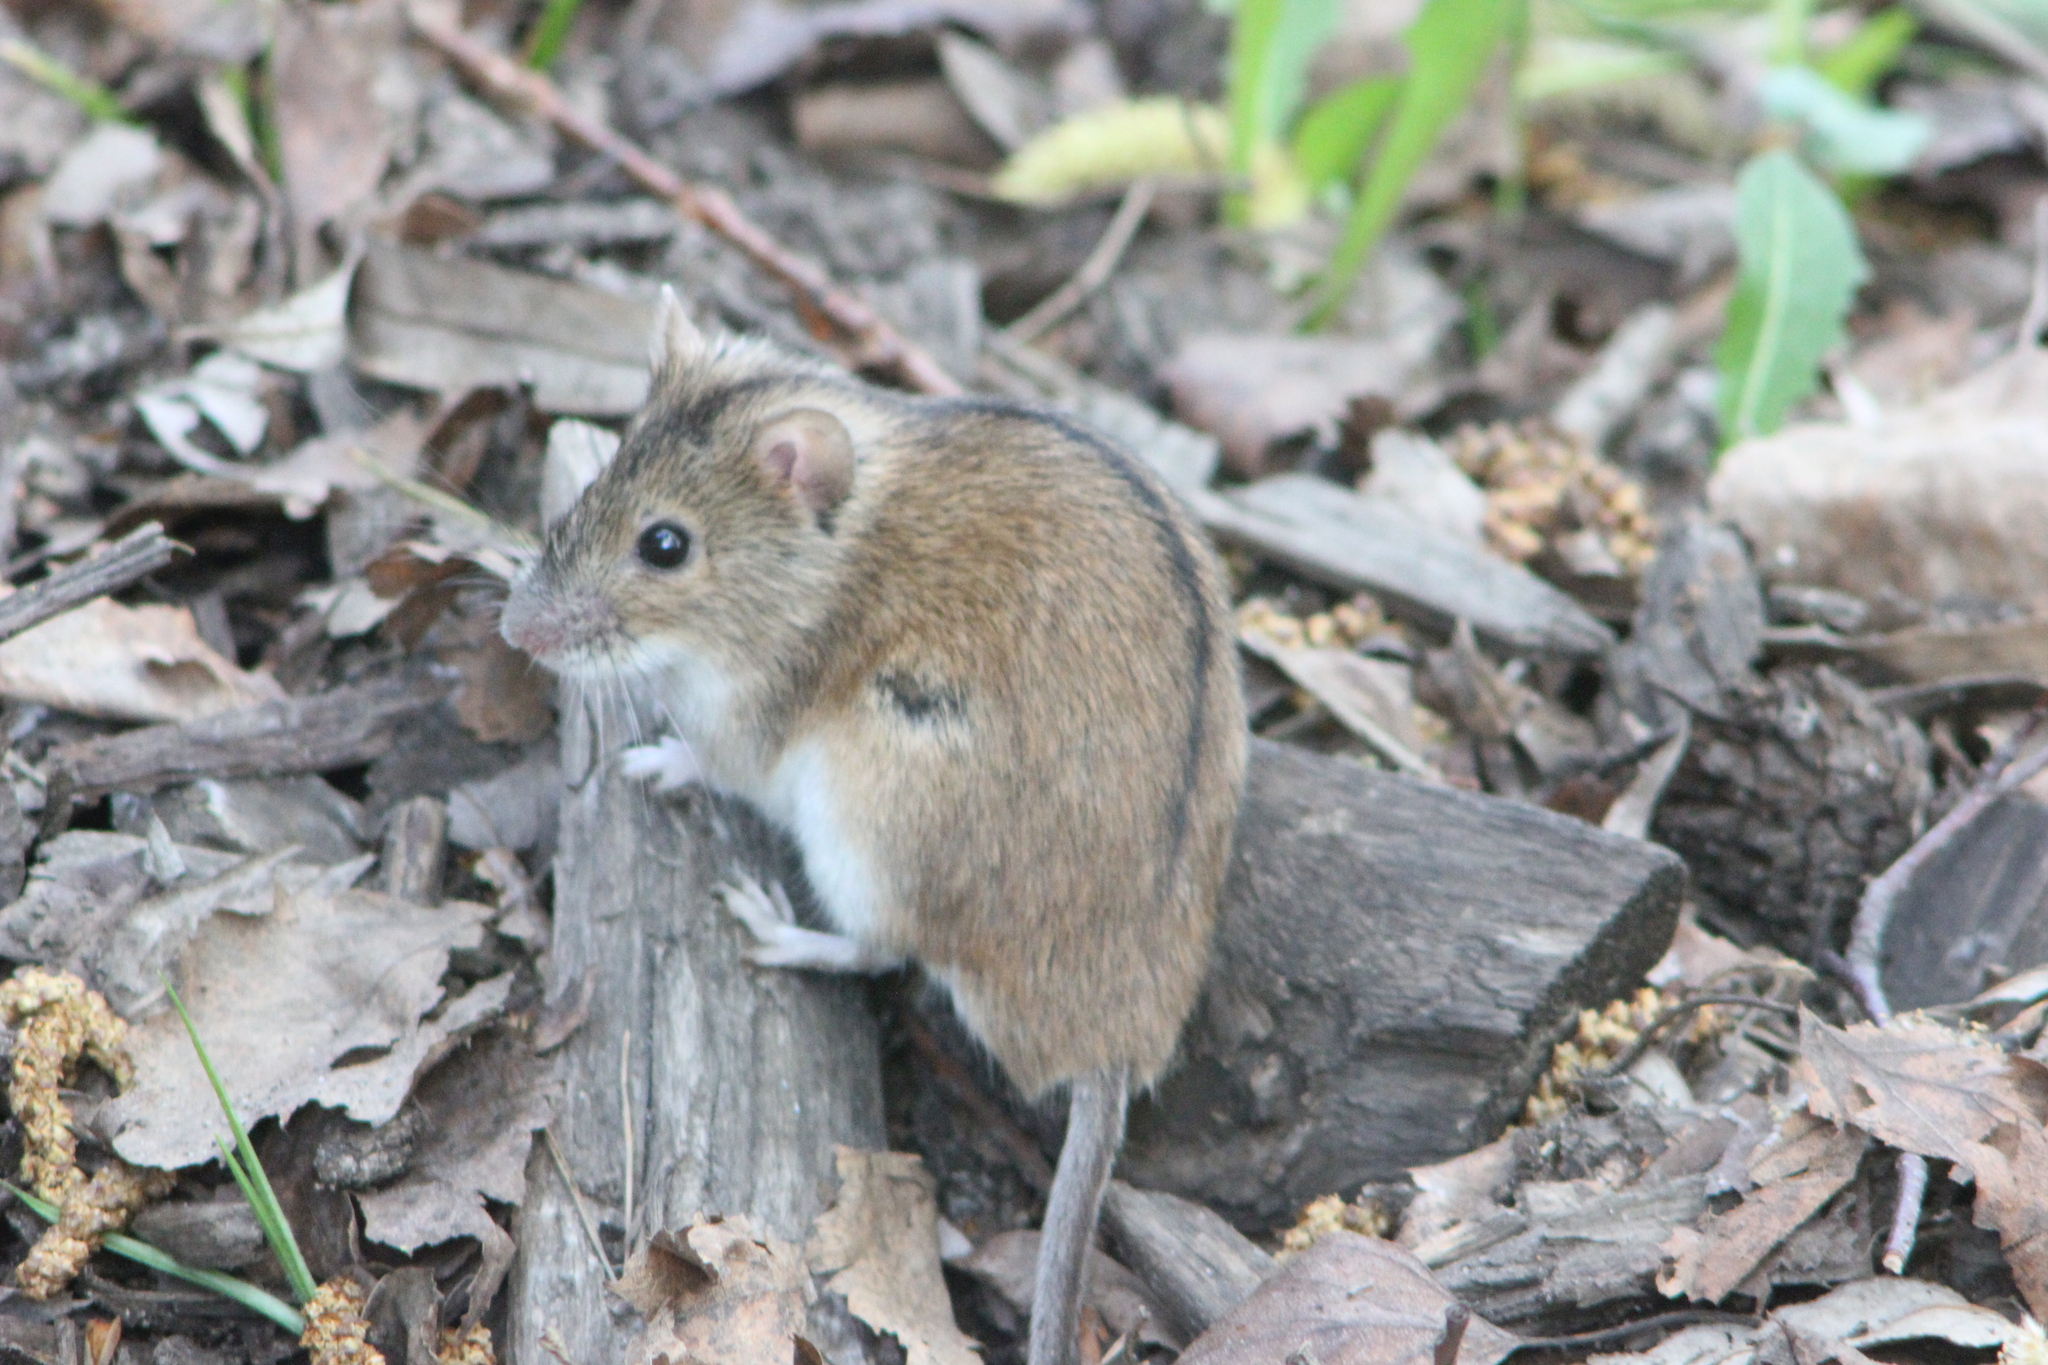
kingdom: Animalia
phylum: Chordata
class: Mammalia
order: Rodentia
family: Muridae
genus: Apodemus
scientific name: Apodemus agrarius
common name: Striped field mouse
